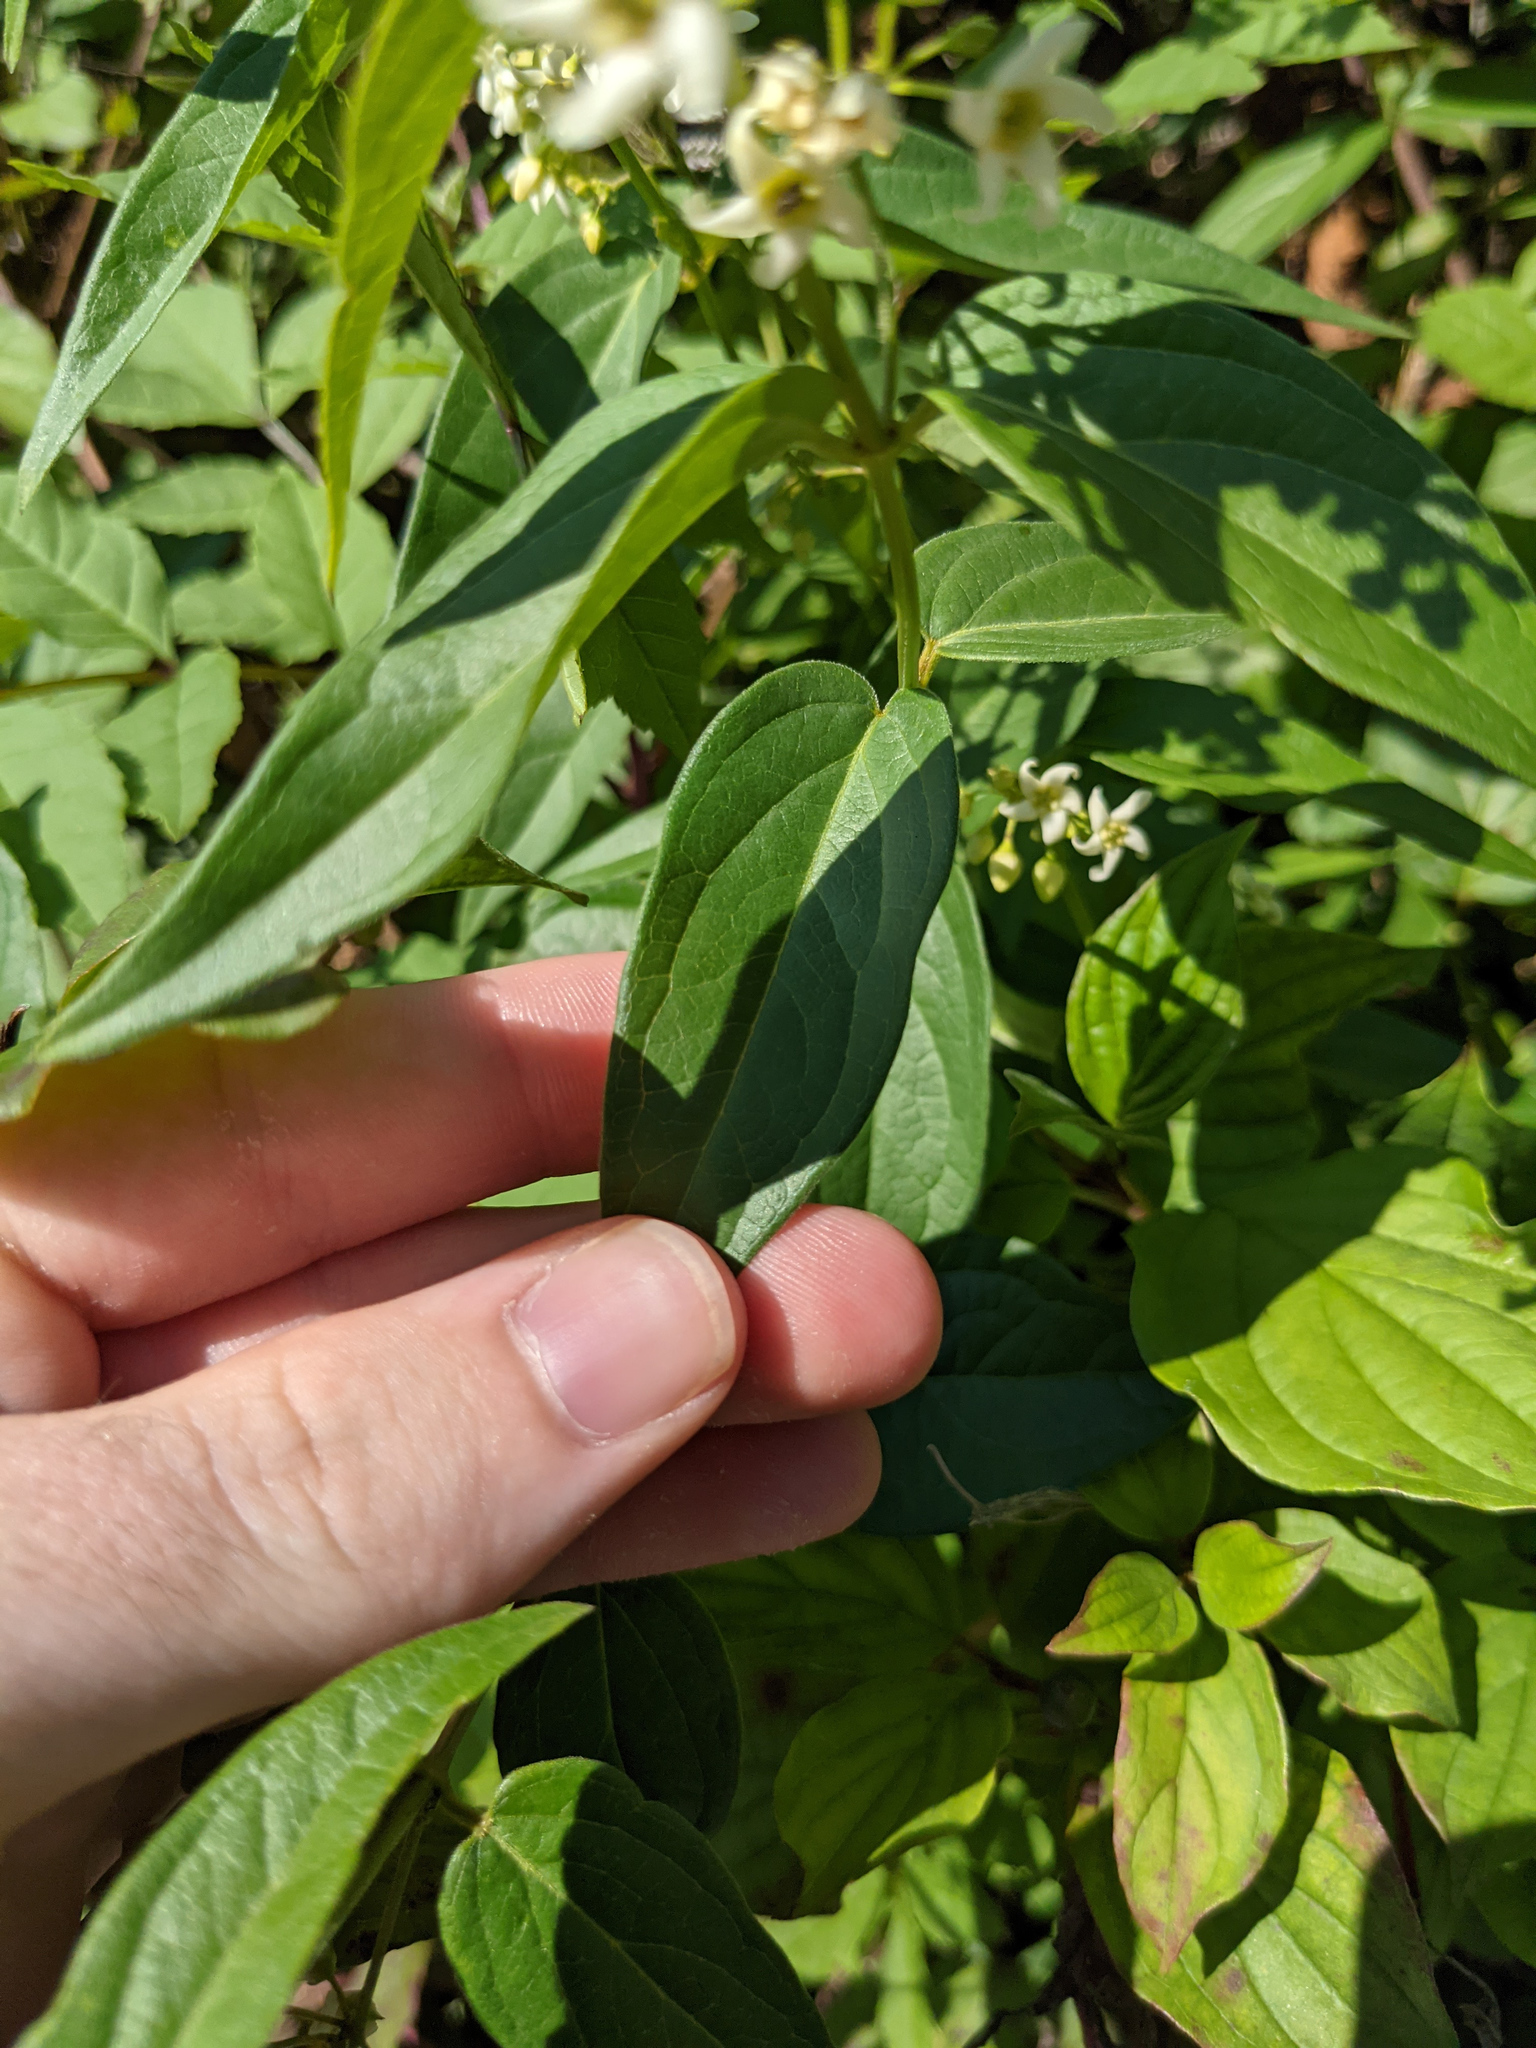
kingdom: Plantae
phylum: Tracheophyta
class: Magnoliopsida
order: Gentianales
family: Apocynaceae
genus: Vincetoxicum
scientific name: Vincetoxicum hirundinaria
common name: White swallowwort
